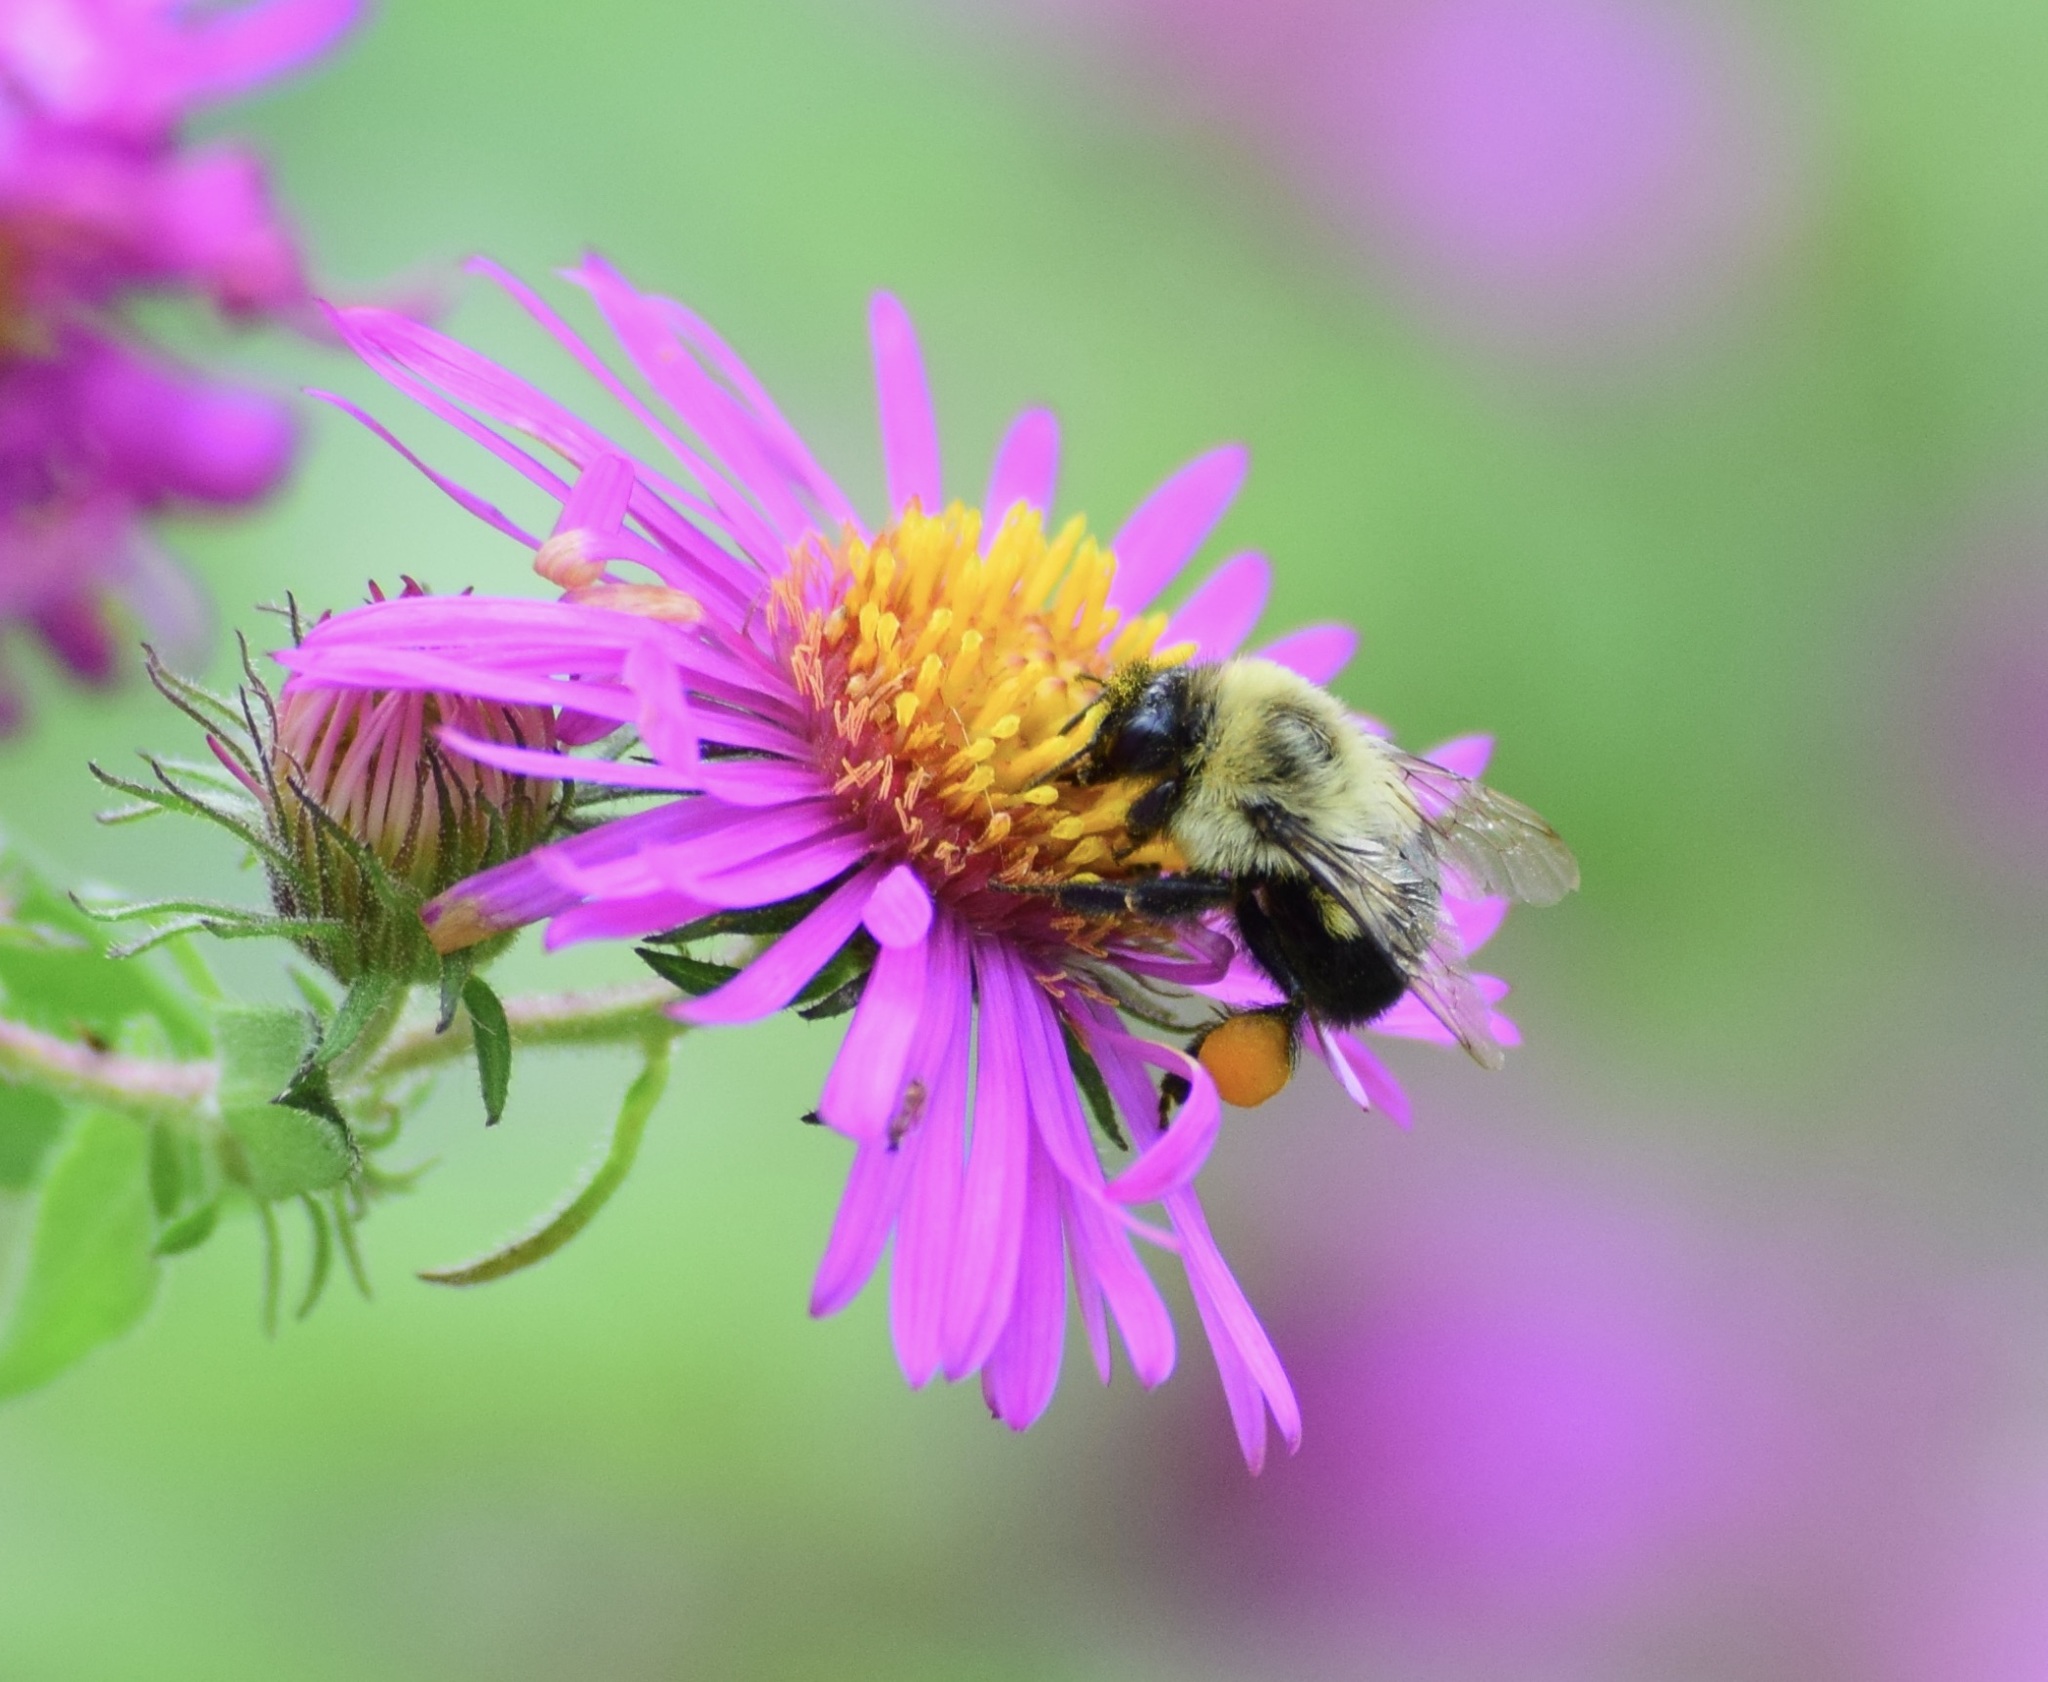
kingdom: Animalia
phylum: Arthropoda
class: Insecta
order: Hymenoptera
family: Apidae
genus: Bombus
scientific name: Bombus impatiens
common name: Common eastern bumble bee
